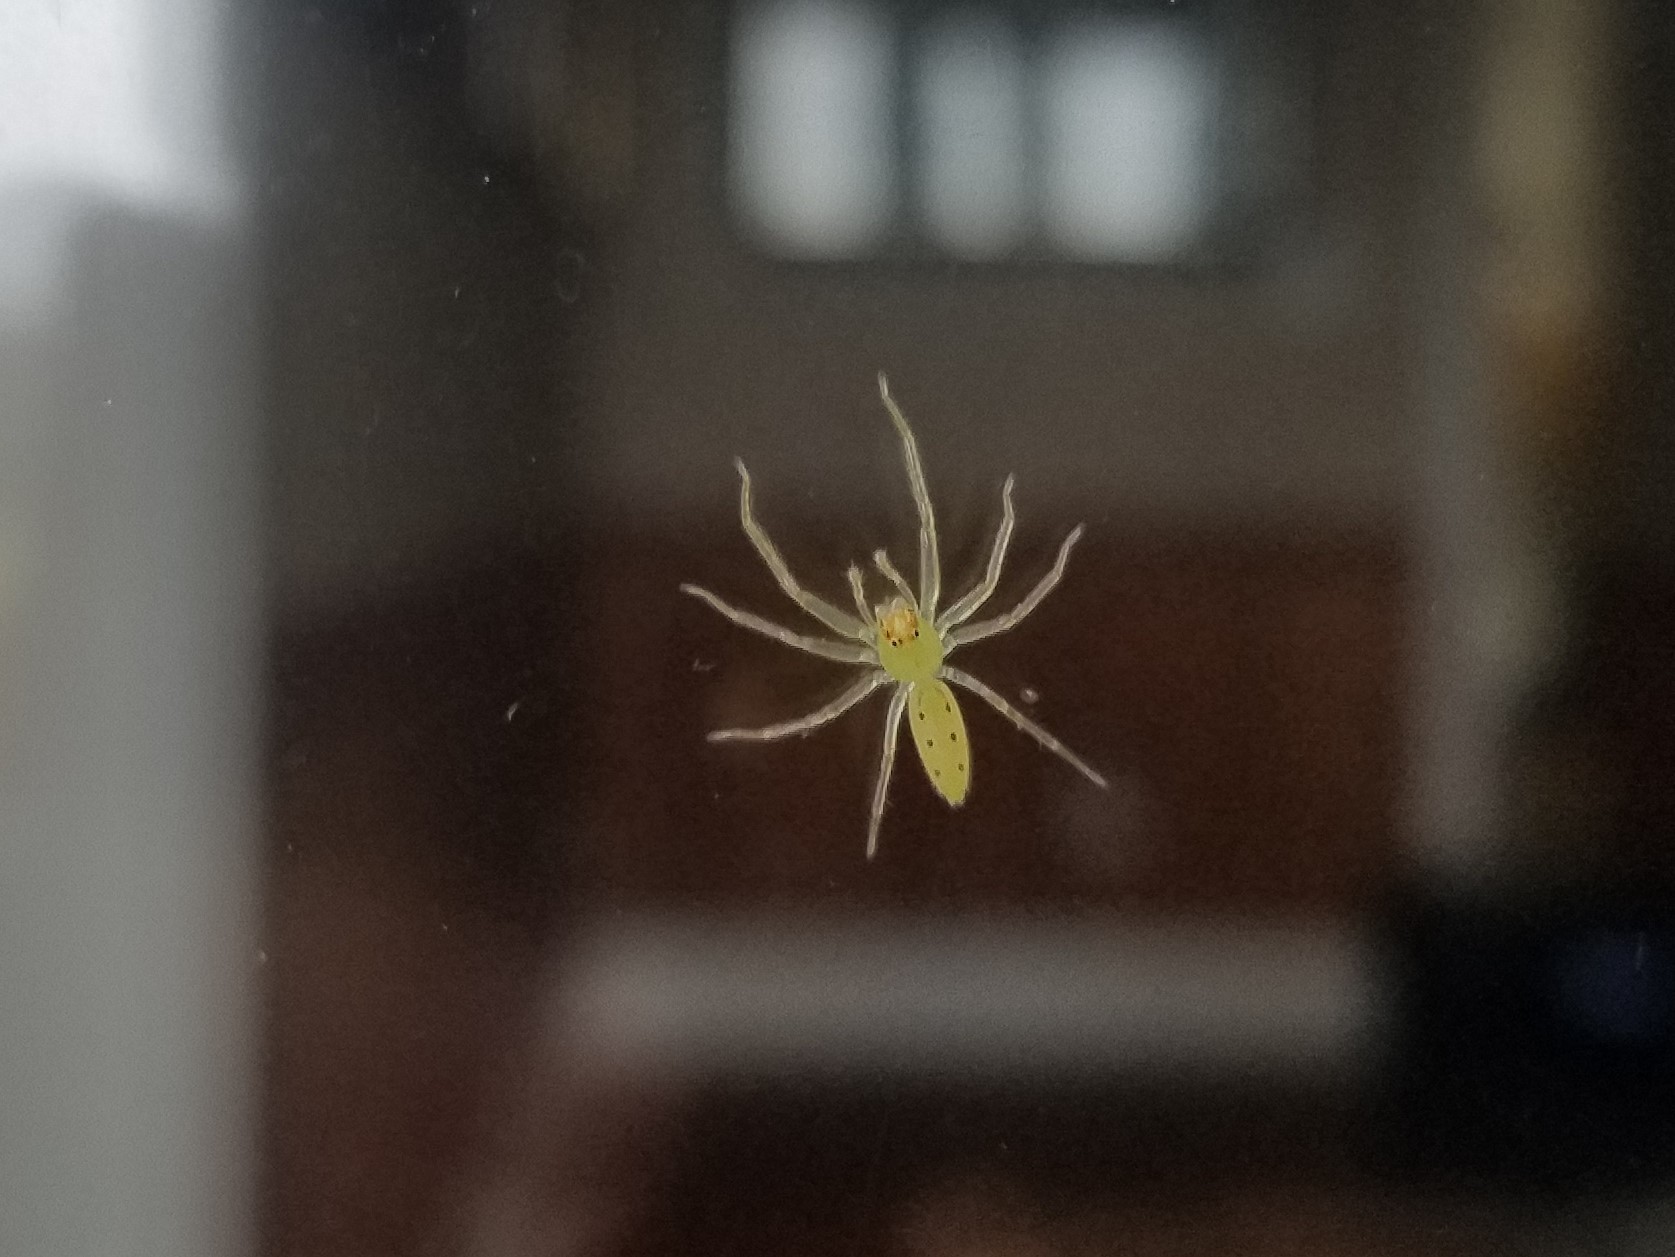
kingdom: Animalia
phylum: Arthropoda
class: Arachnida
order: Araneae
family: Salticidae
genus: Lyssomanes
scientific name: Lyssomanes viridis
